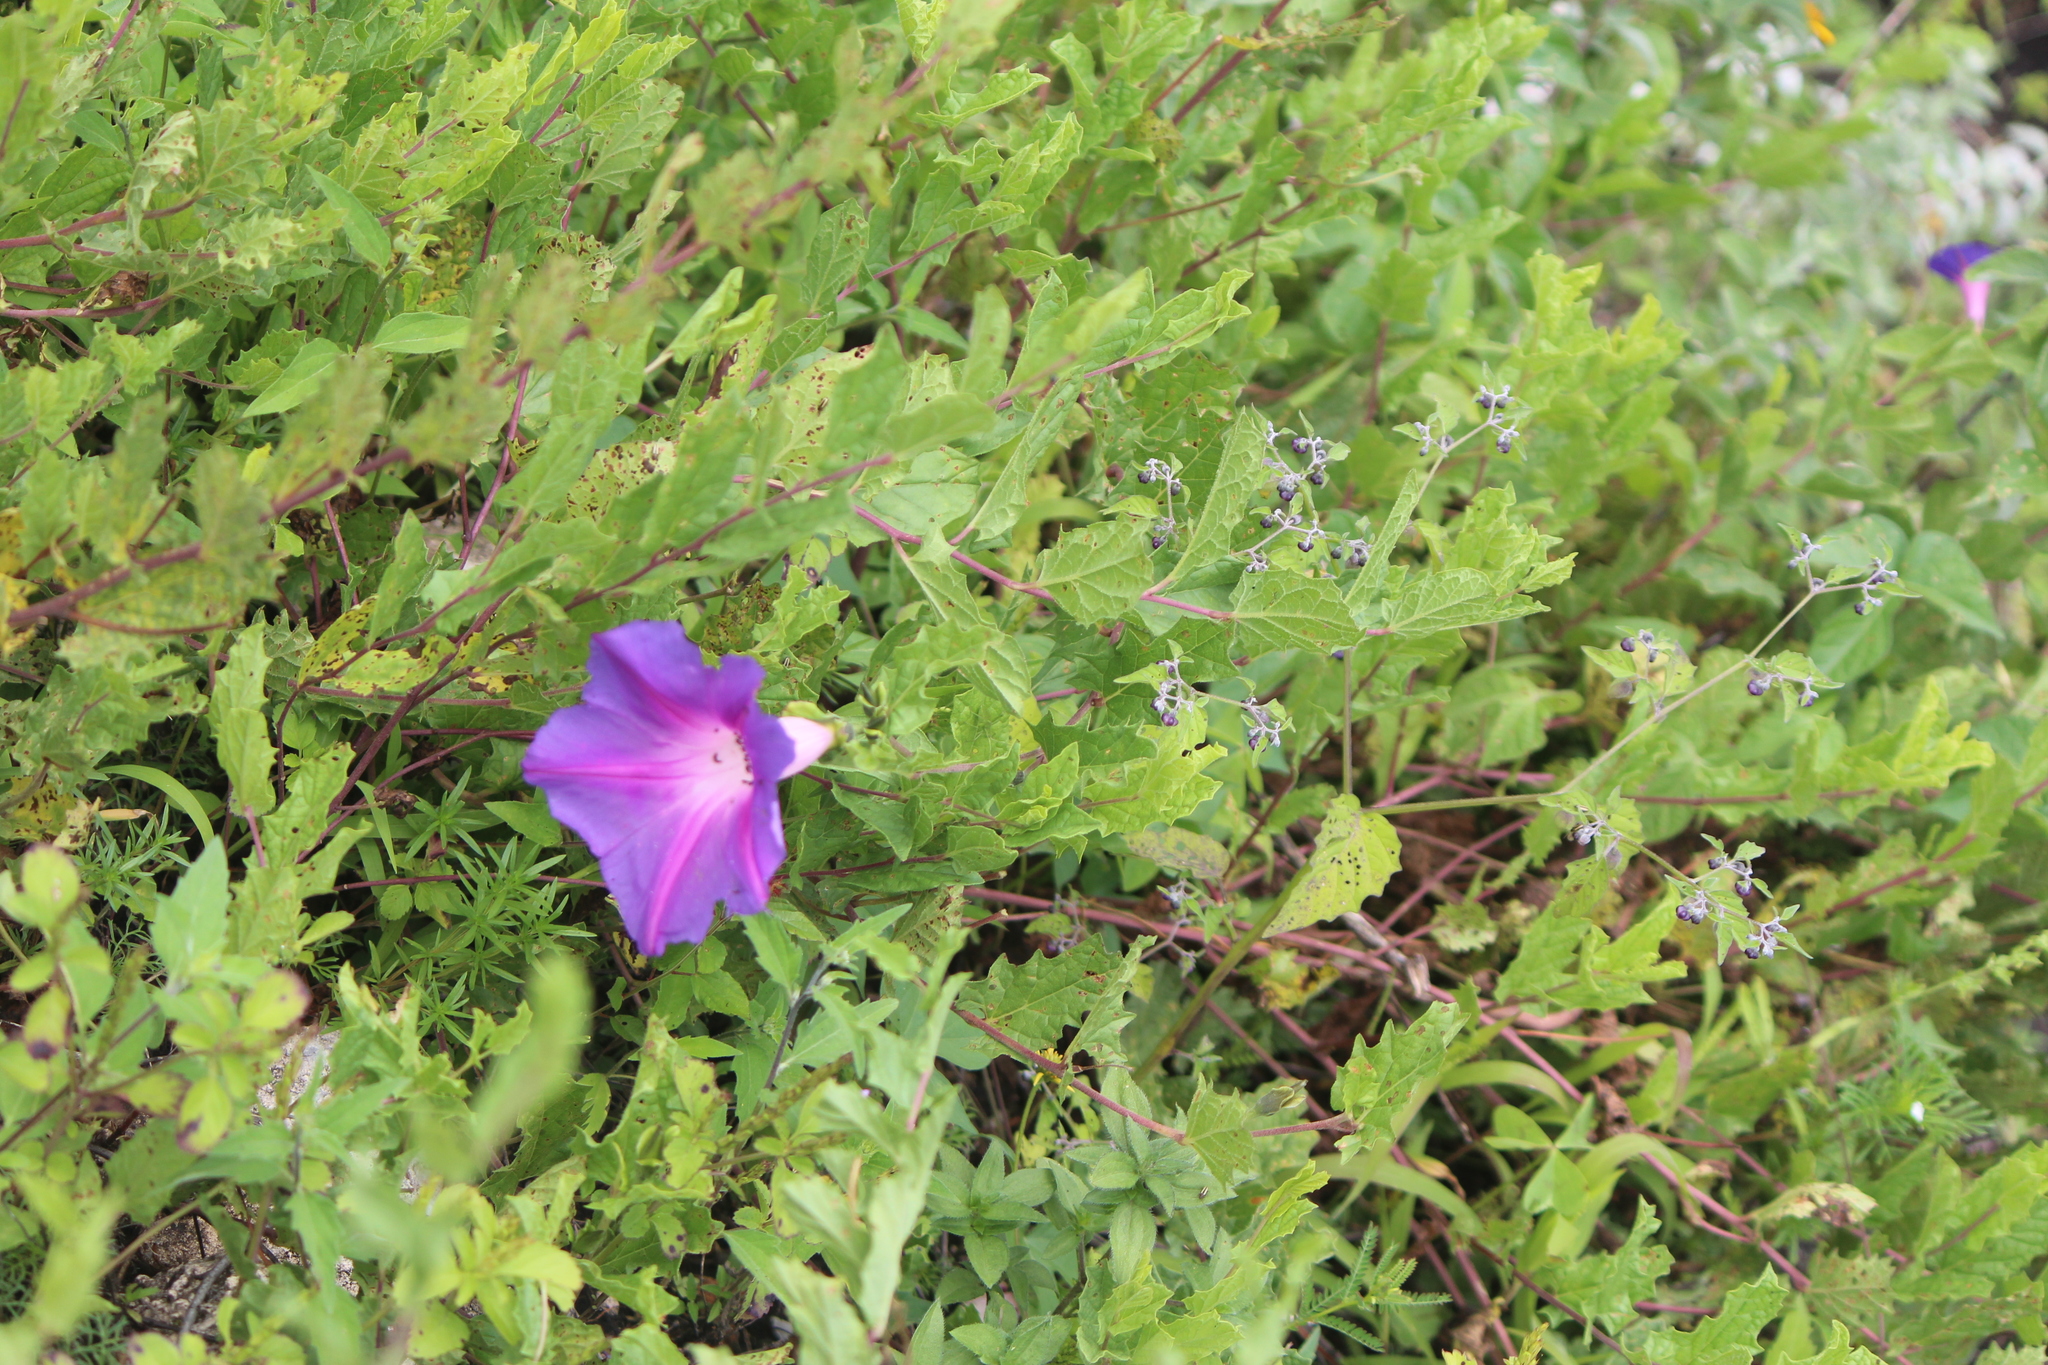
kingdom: Plantae
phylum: Tracheophyta
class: Magnoliopsida
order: Solanales
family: Convolvulaceae
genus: Ipomoea
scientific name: Ipomoea stans
